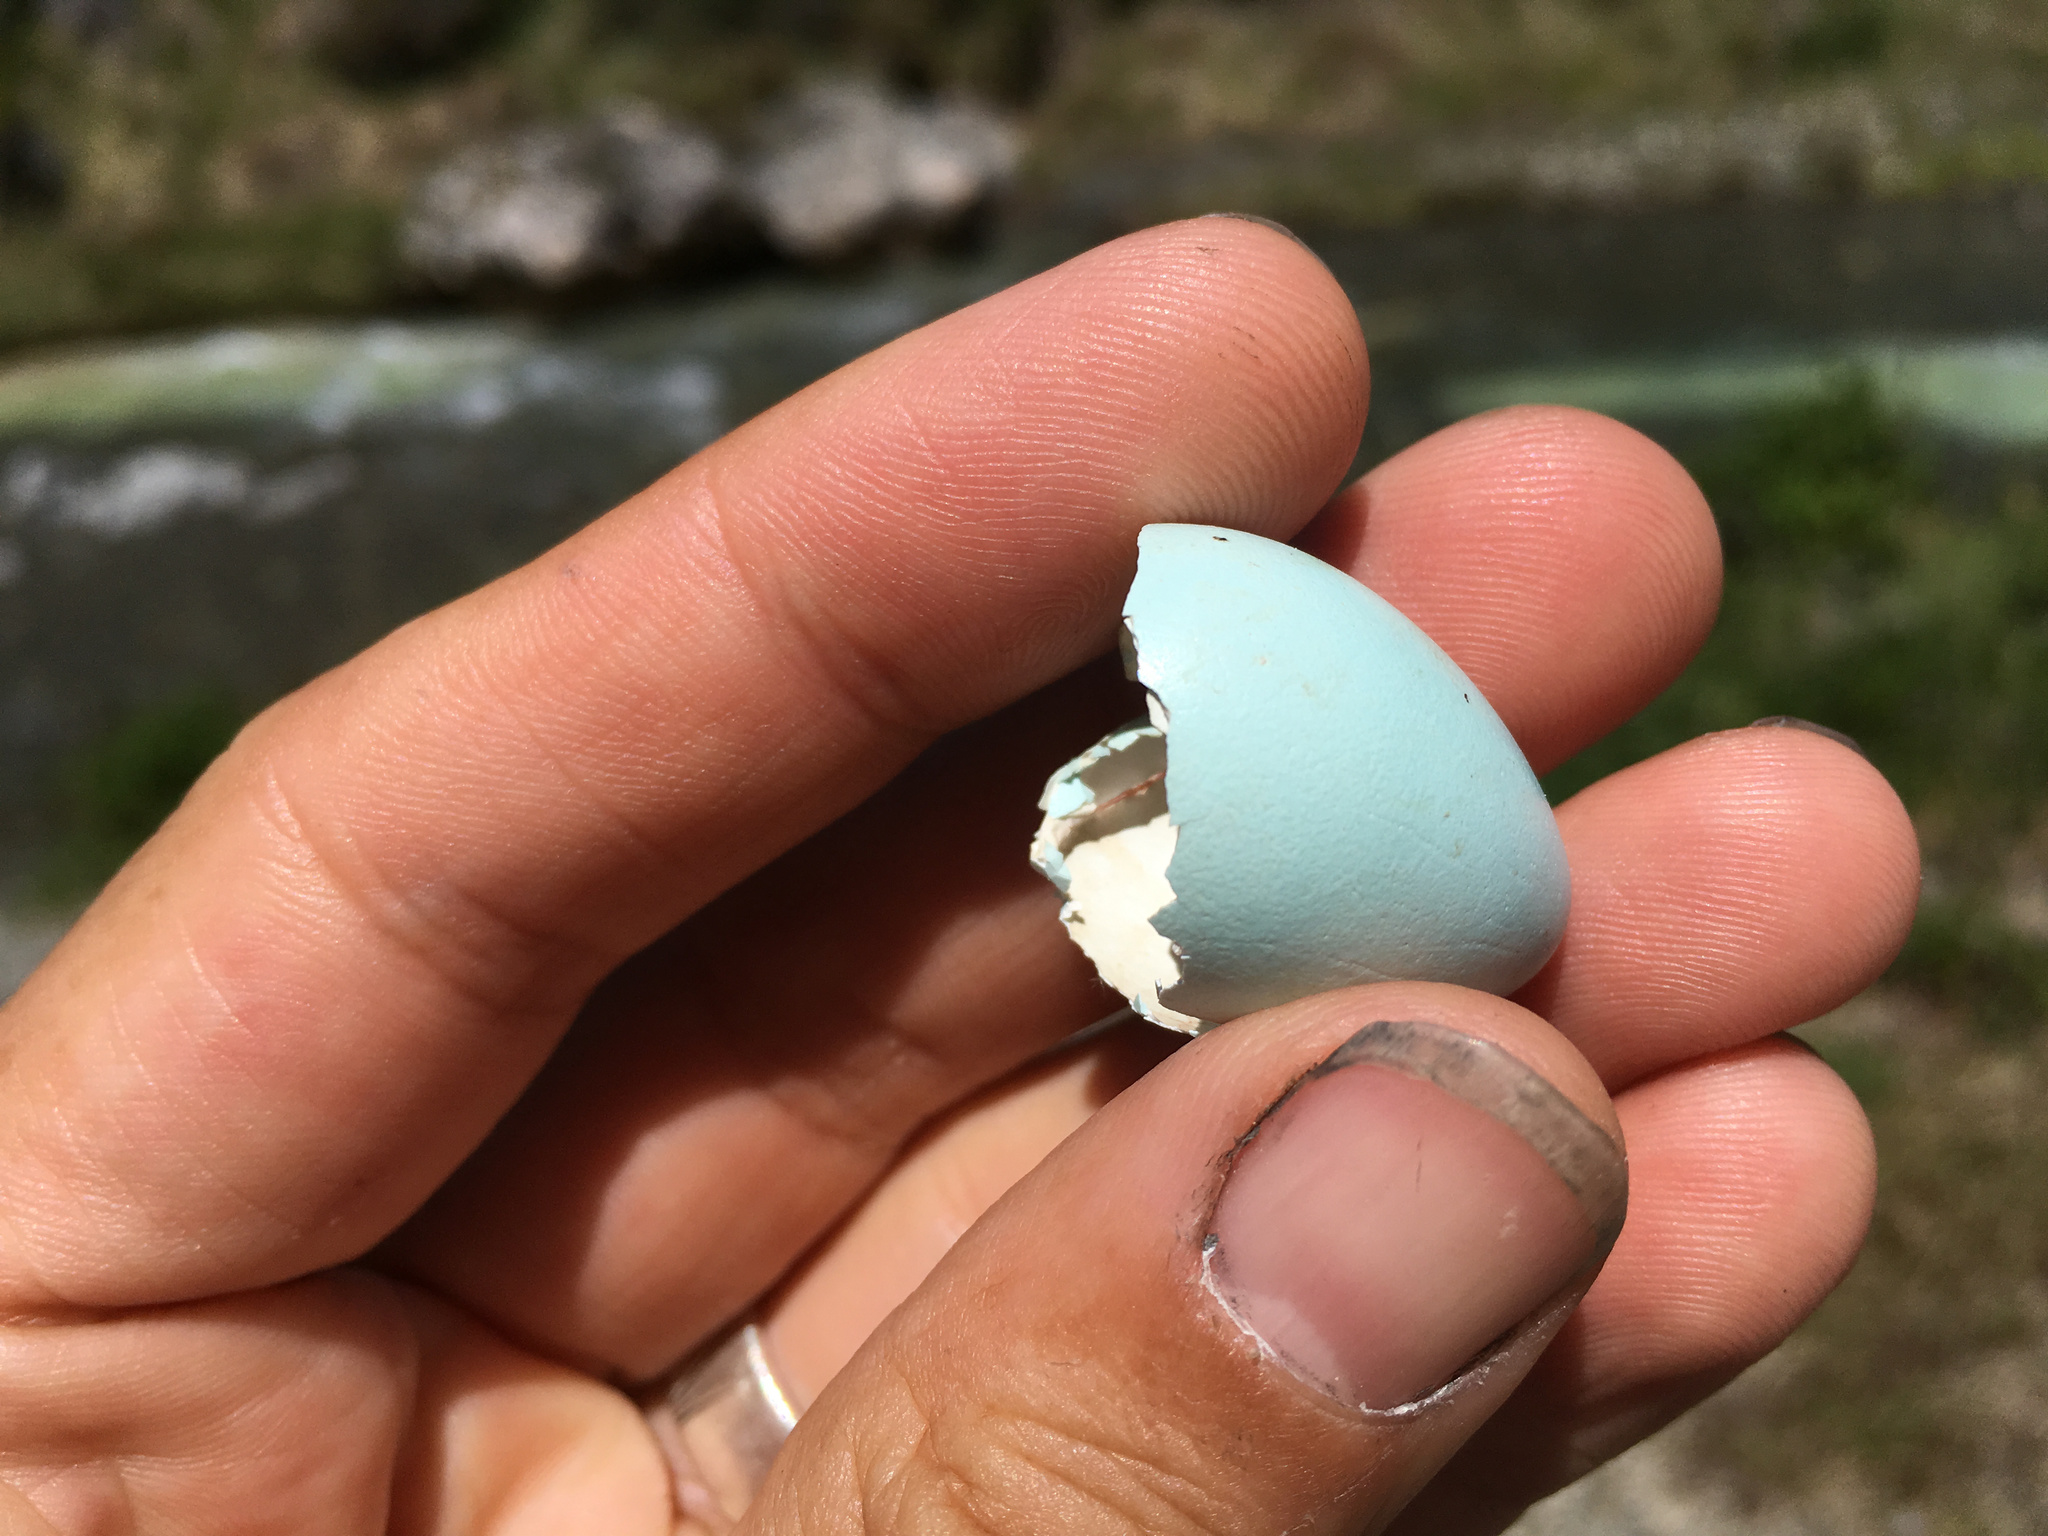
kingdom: Animalia
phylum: Chordata
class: Aves
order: Passeriformes
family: Sturnidae
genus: Sturnus
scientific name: Sturnus vulgaris
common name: Common starling
